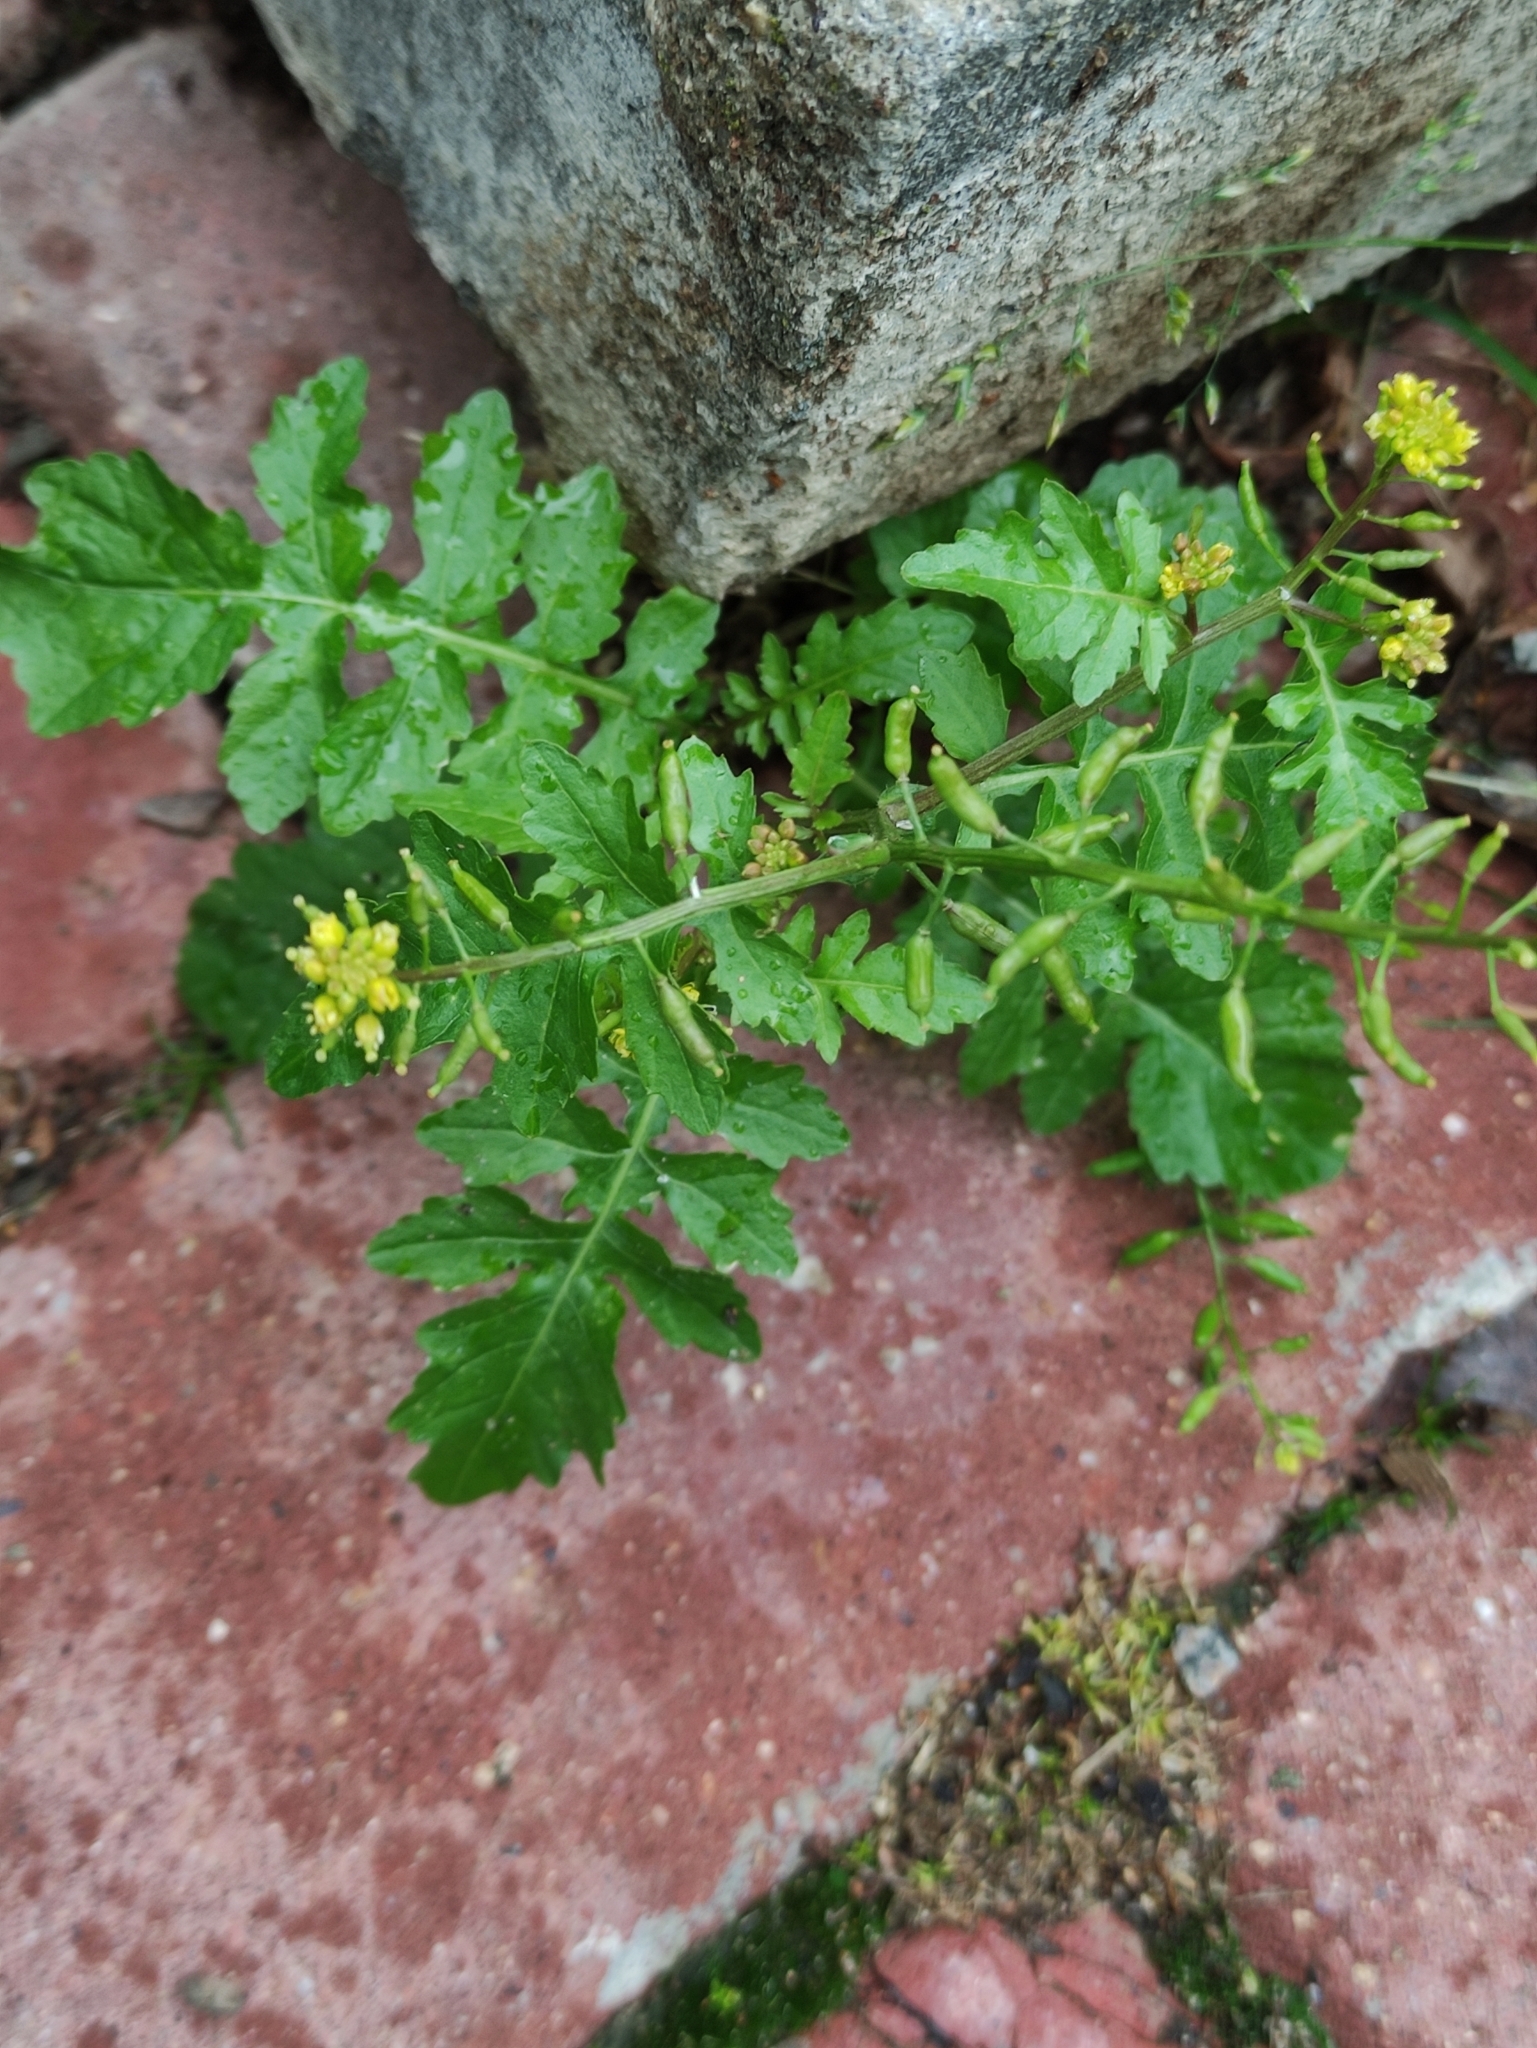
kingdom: Plantae
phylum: Tracheophyta
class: Magnoliopsida
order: Brassicales
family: Brassicaceae
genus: Rorippa
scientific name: Rorippa palustris
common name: Marsh yellow-cress
